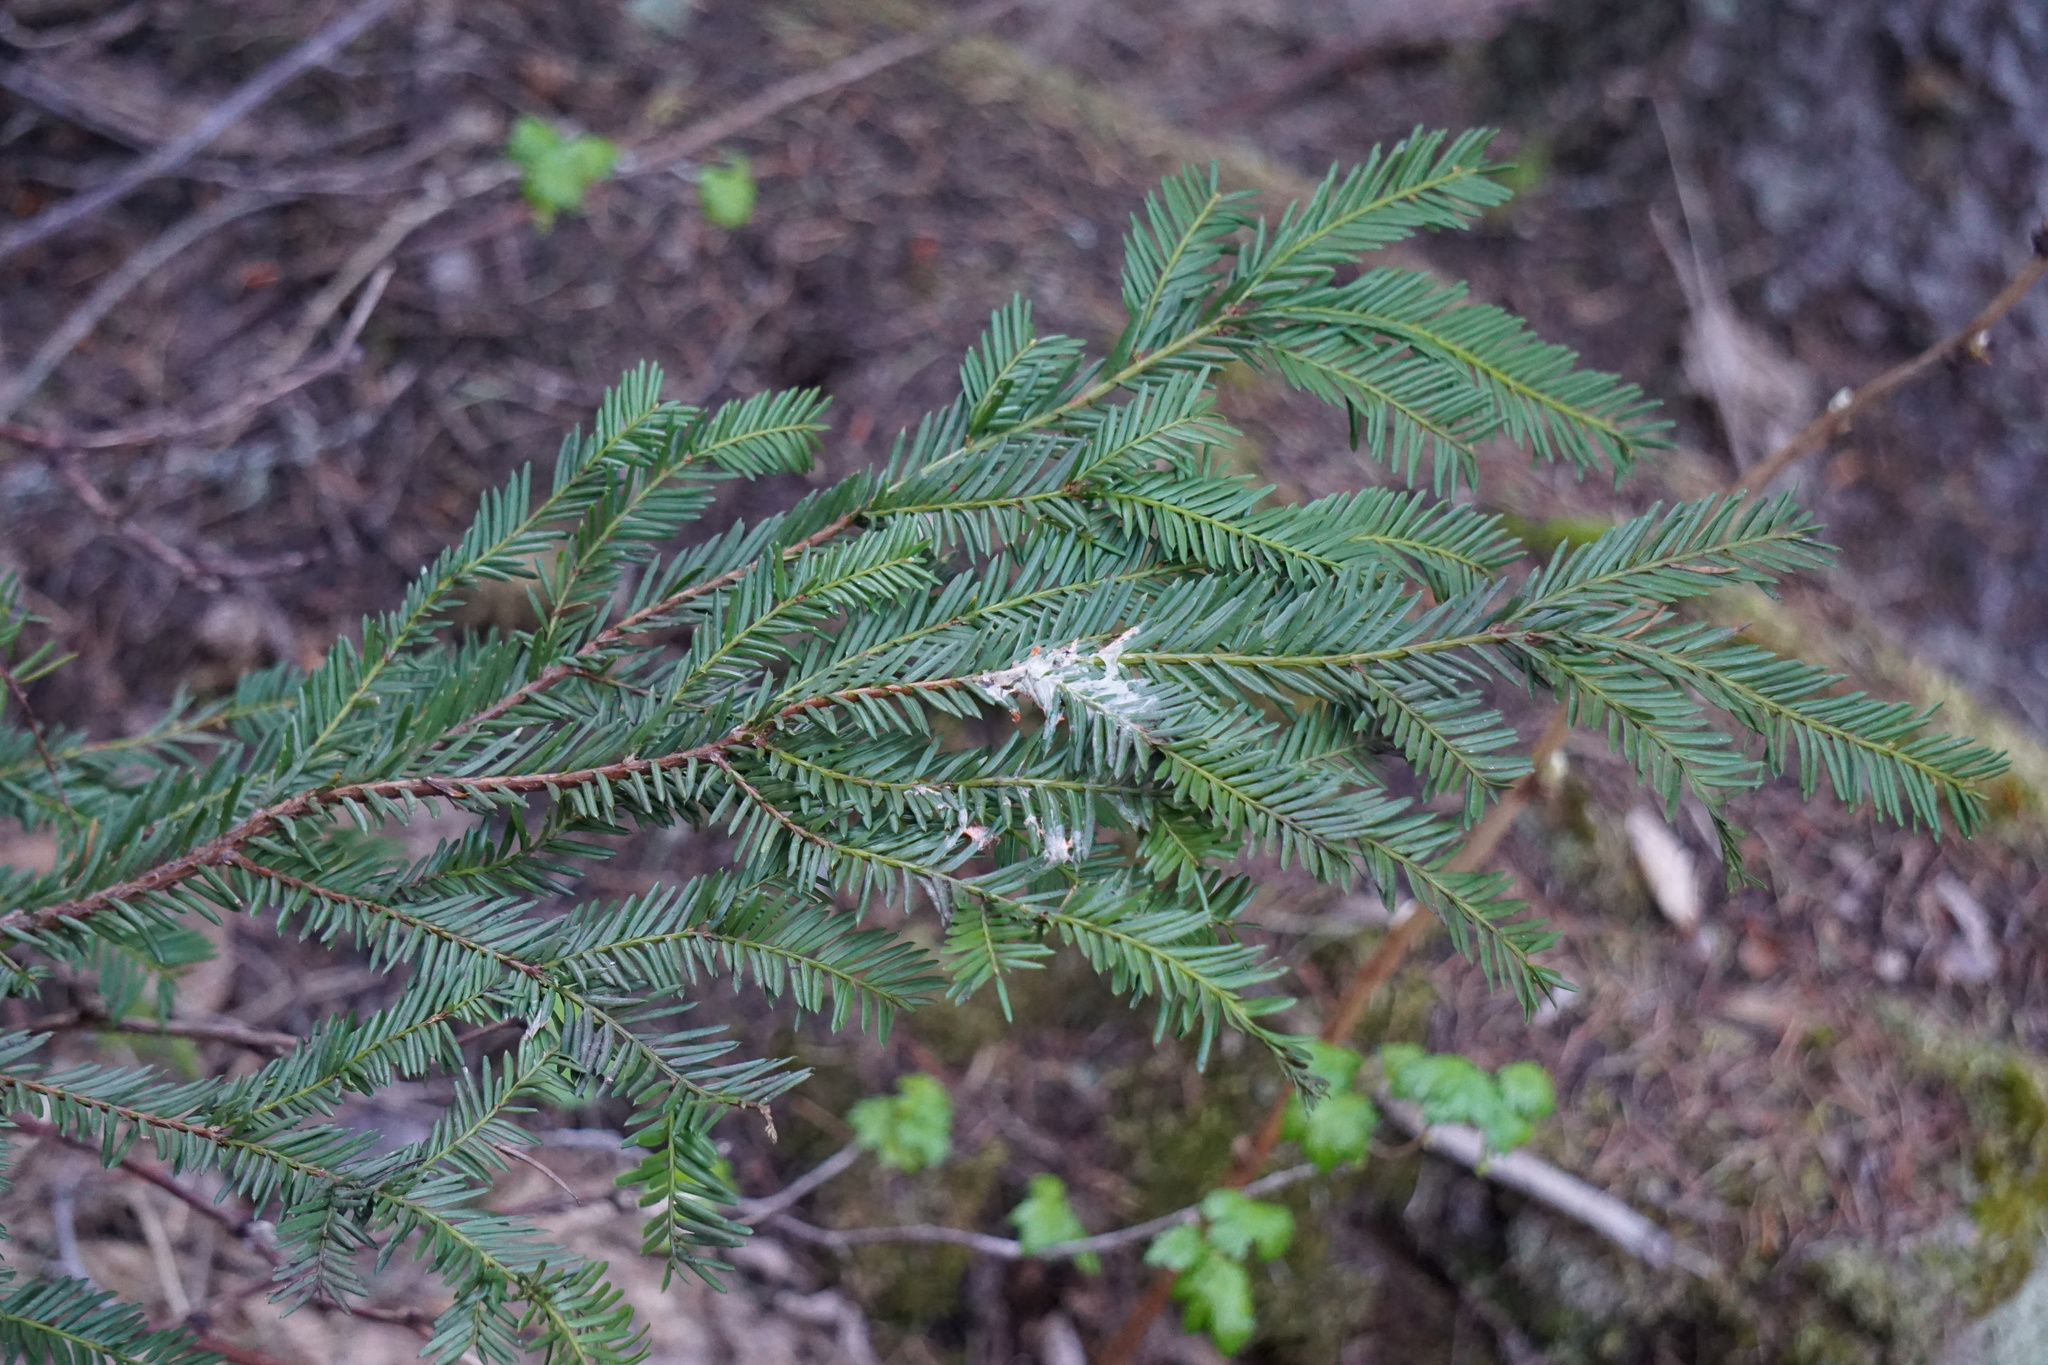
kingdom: Plantae
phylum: Tracheophyta
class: Pinopsida
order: Pinales
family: Taxaceae
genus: Taxus
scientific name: Taxus brevifolia
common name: Pacific yew
